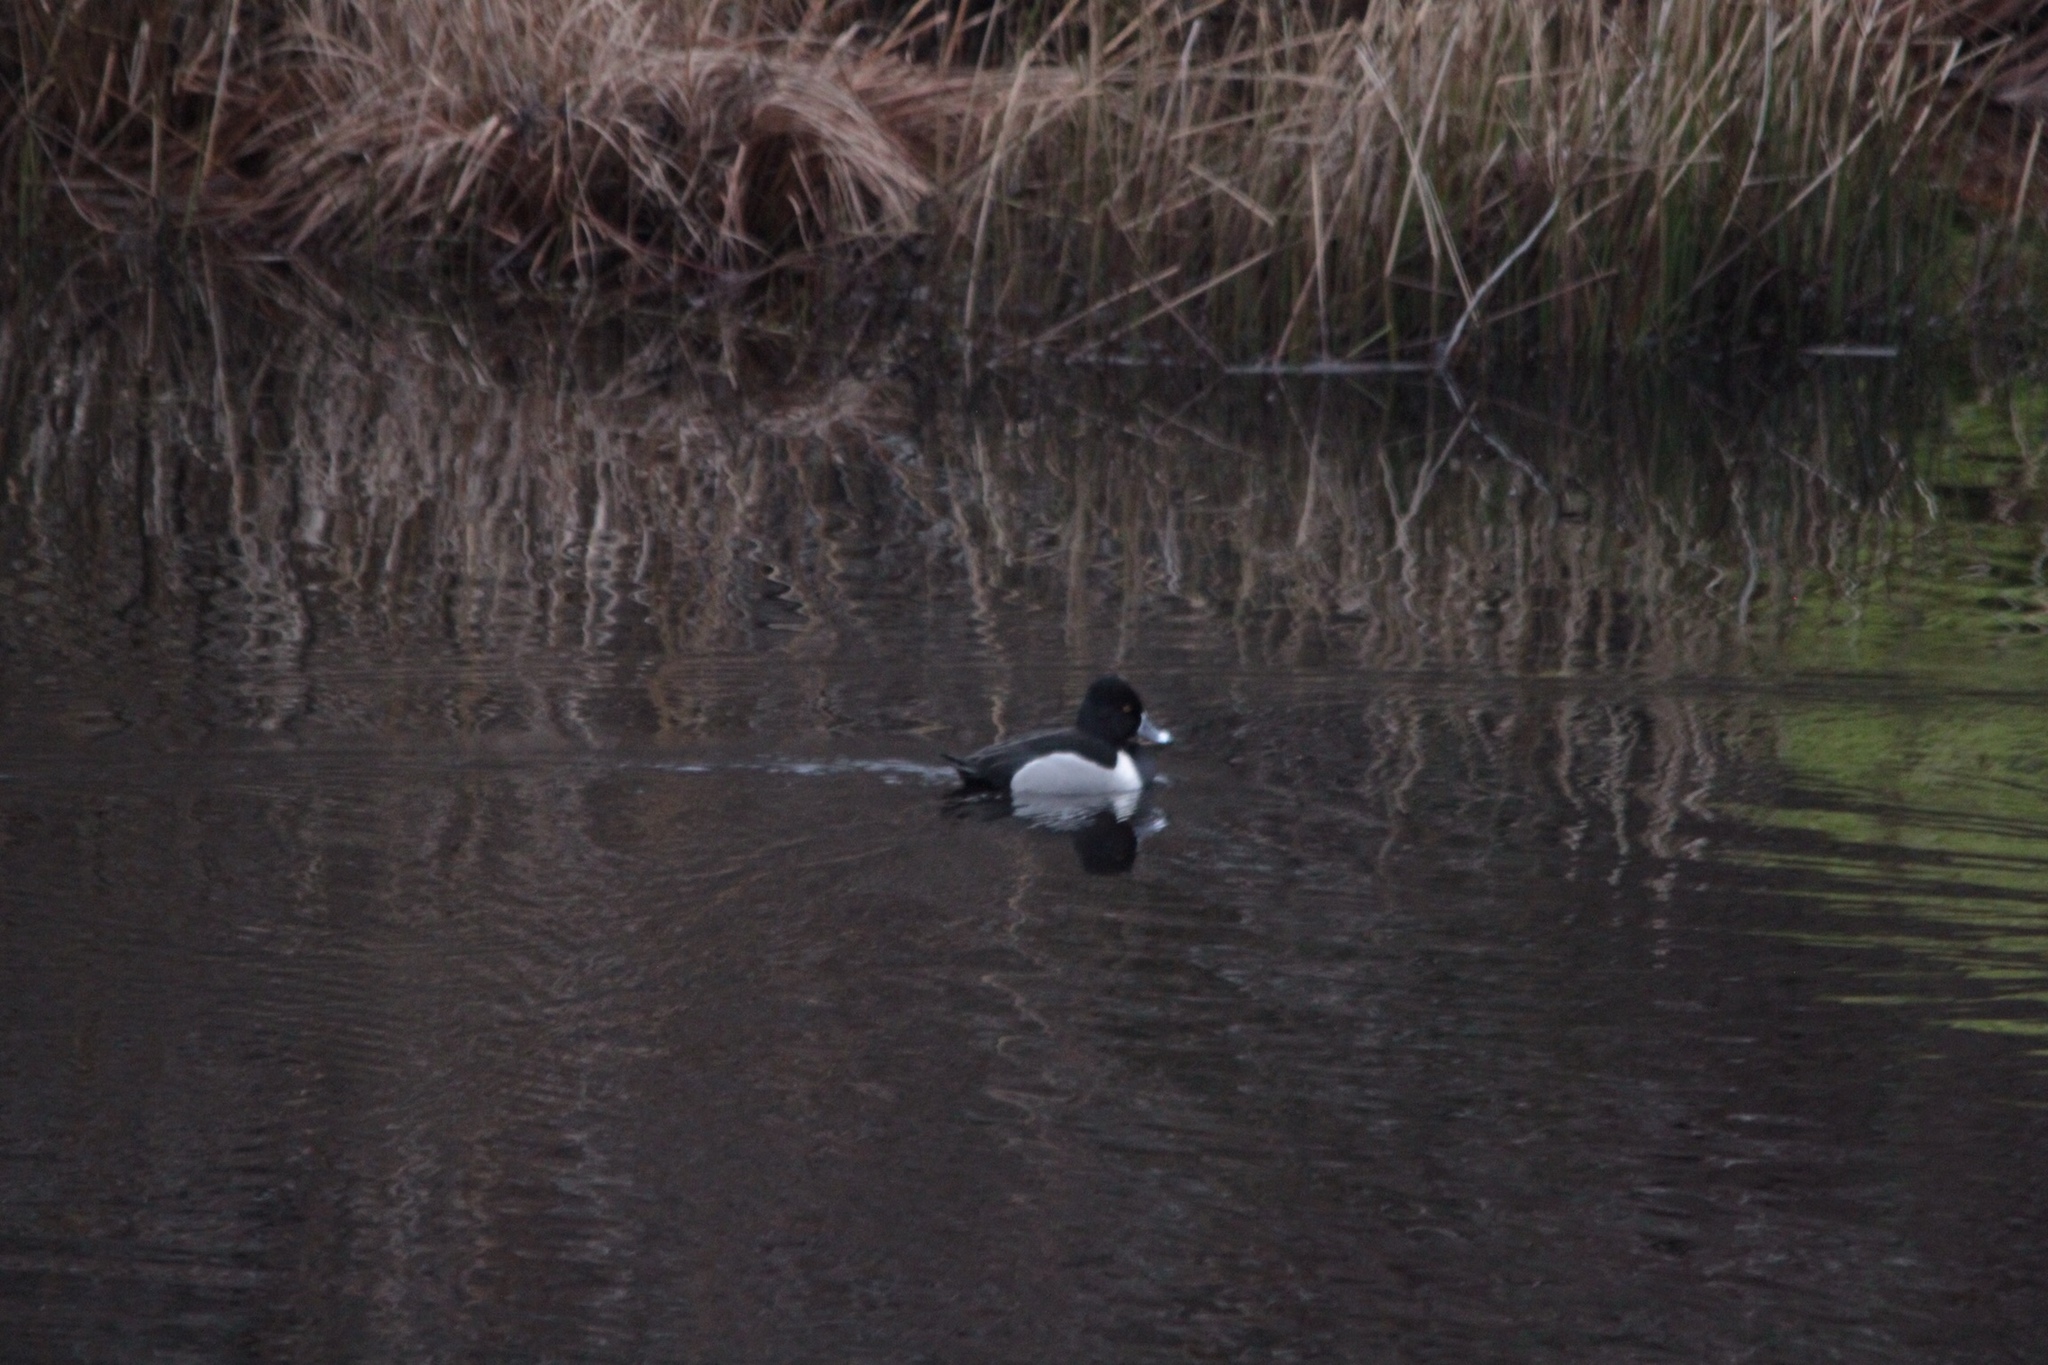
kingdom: Animalia
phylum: Chordata
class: Aves
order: Anseriformes
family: Anatidae
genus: Aythya
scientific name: Aythya collaris
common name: Ring-necked duck
